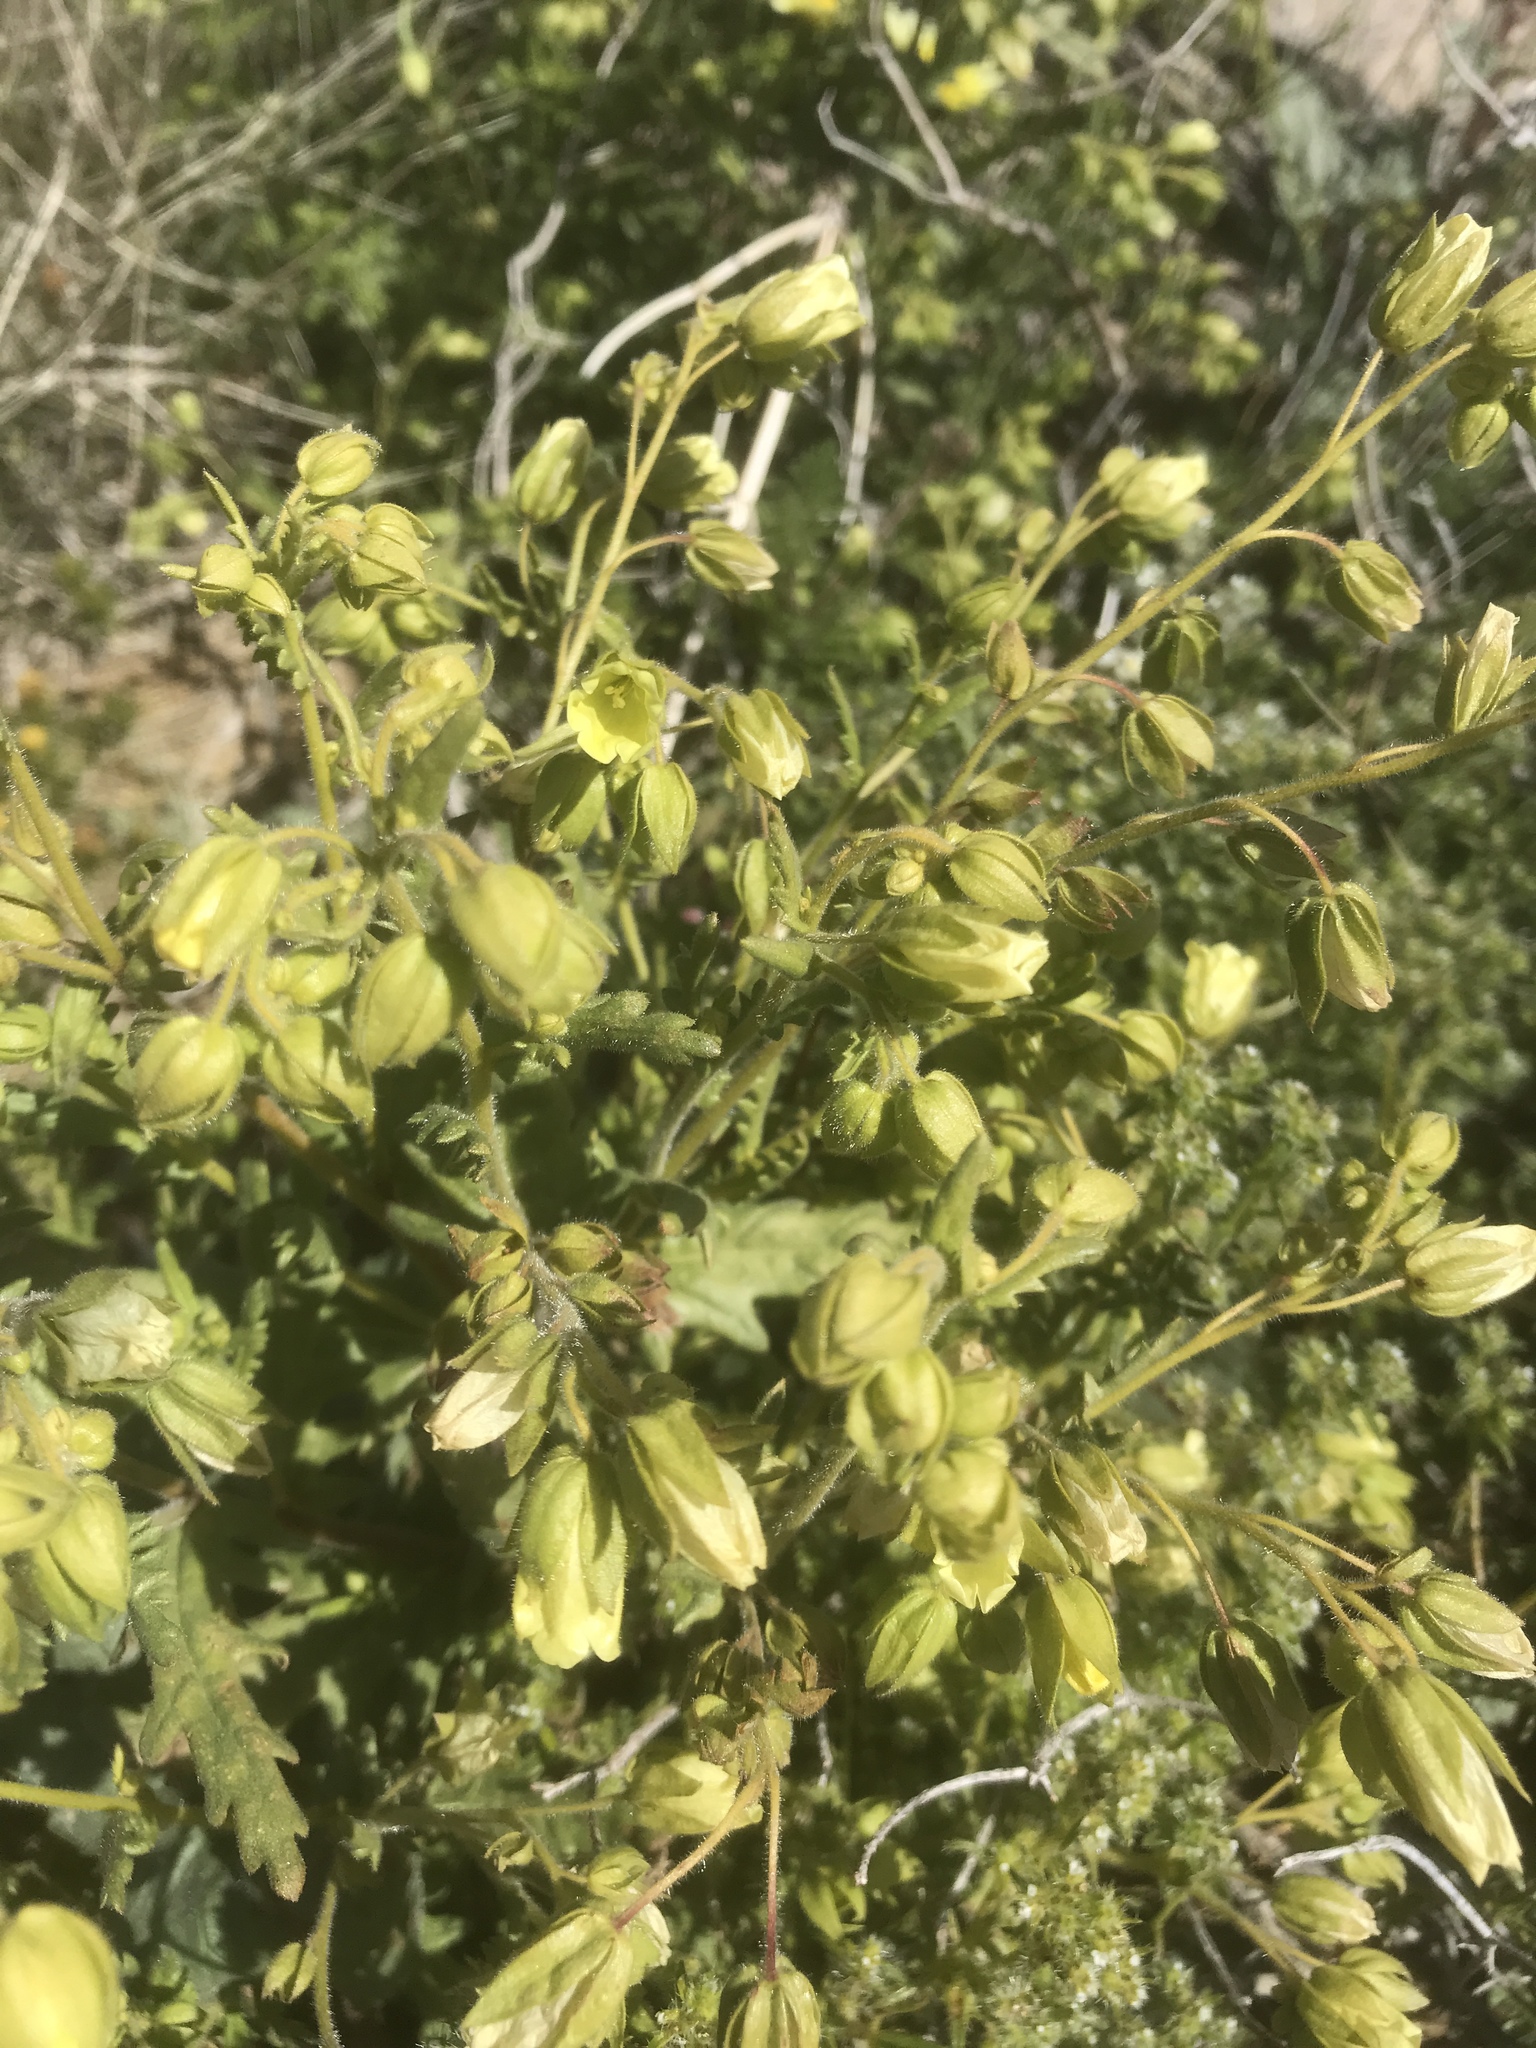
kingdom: Plantae
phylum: Tracheophyta
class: Magnoliopsida
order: Boraginales
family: Hydrophyllaceae
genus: Emmenanthe
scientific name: Emmenanthe penduliflora
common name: Whispering-bells
